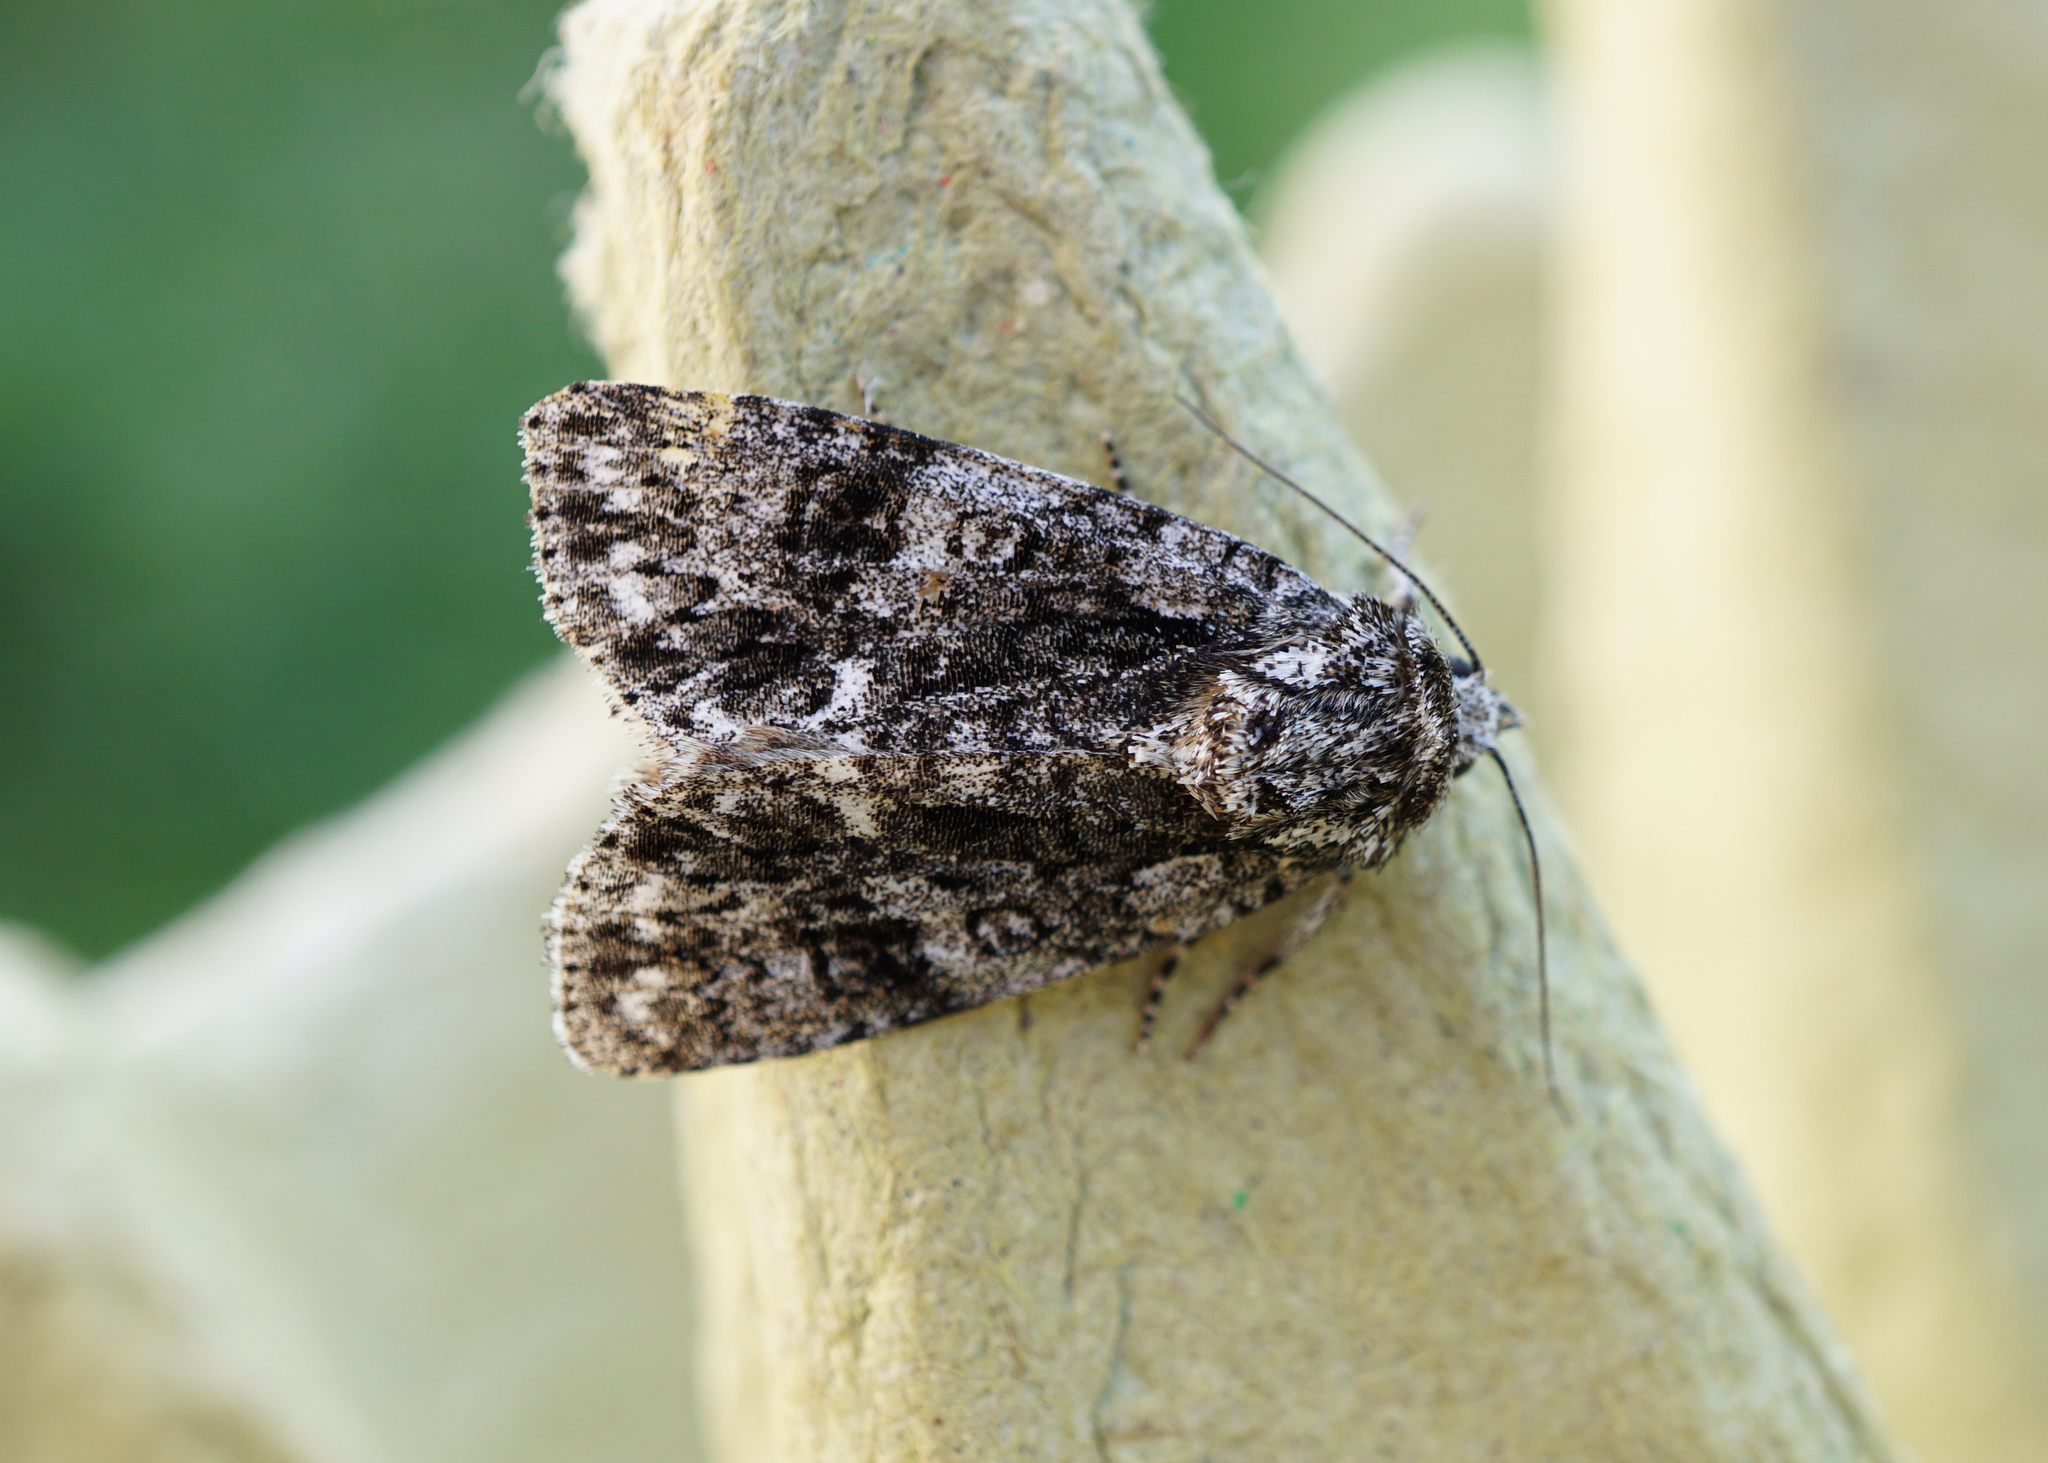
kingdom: Animalia
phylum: Arthropoda
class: Insecta
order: Lepidoptera
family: Noctuidae
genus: Acronicta
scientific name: Acronicta rumicis
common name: Knot grass
